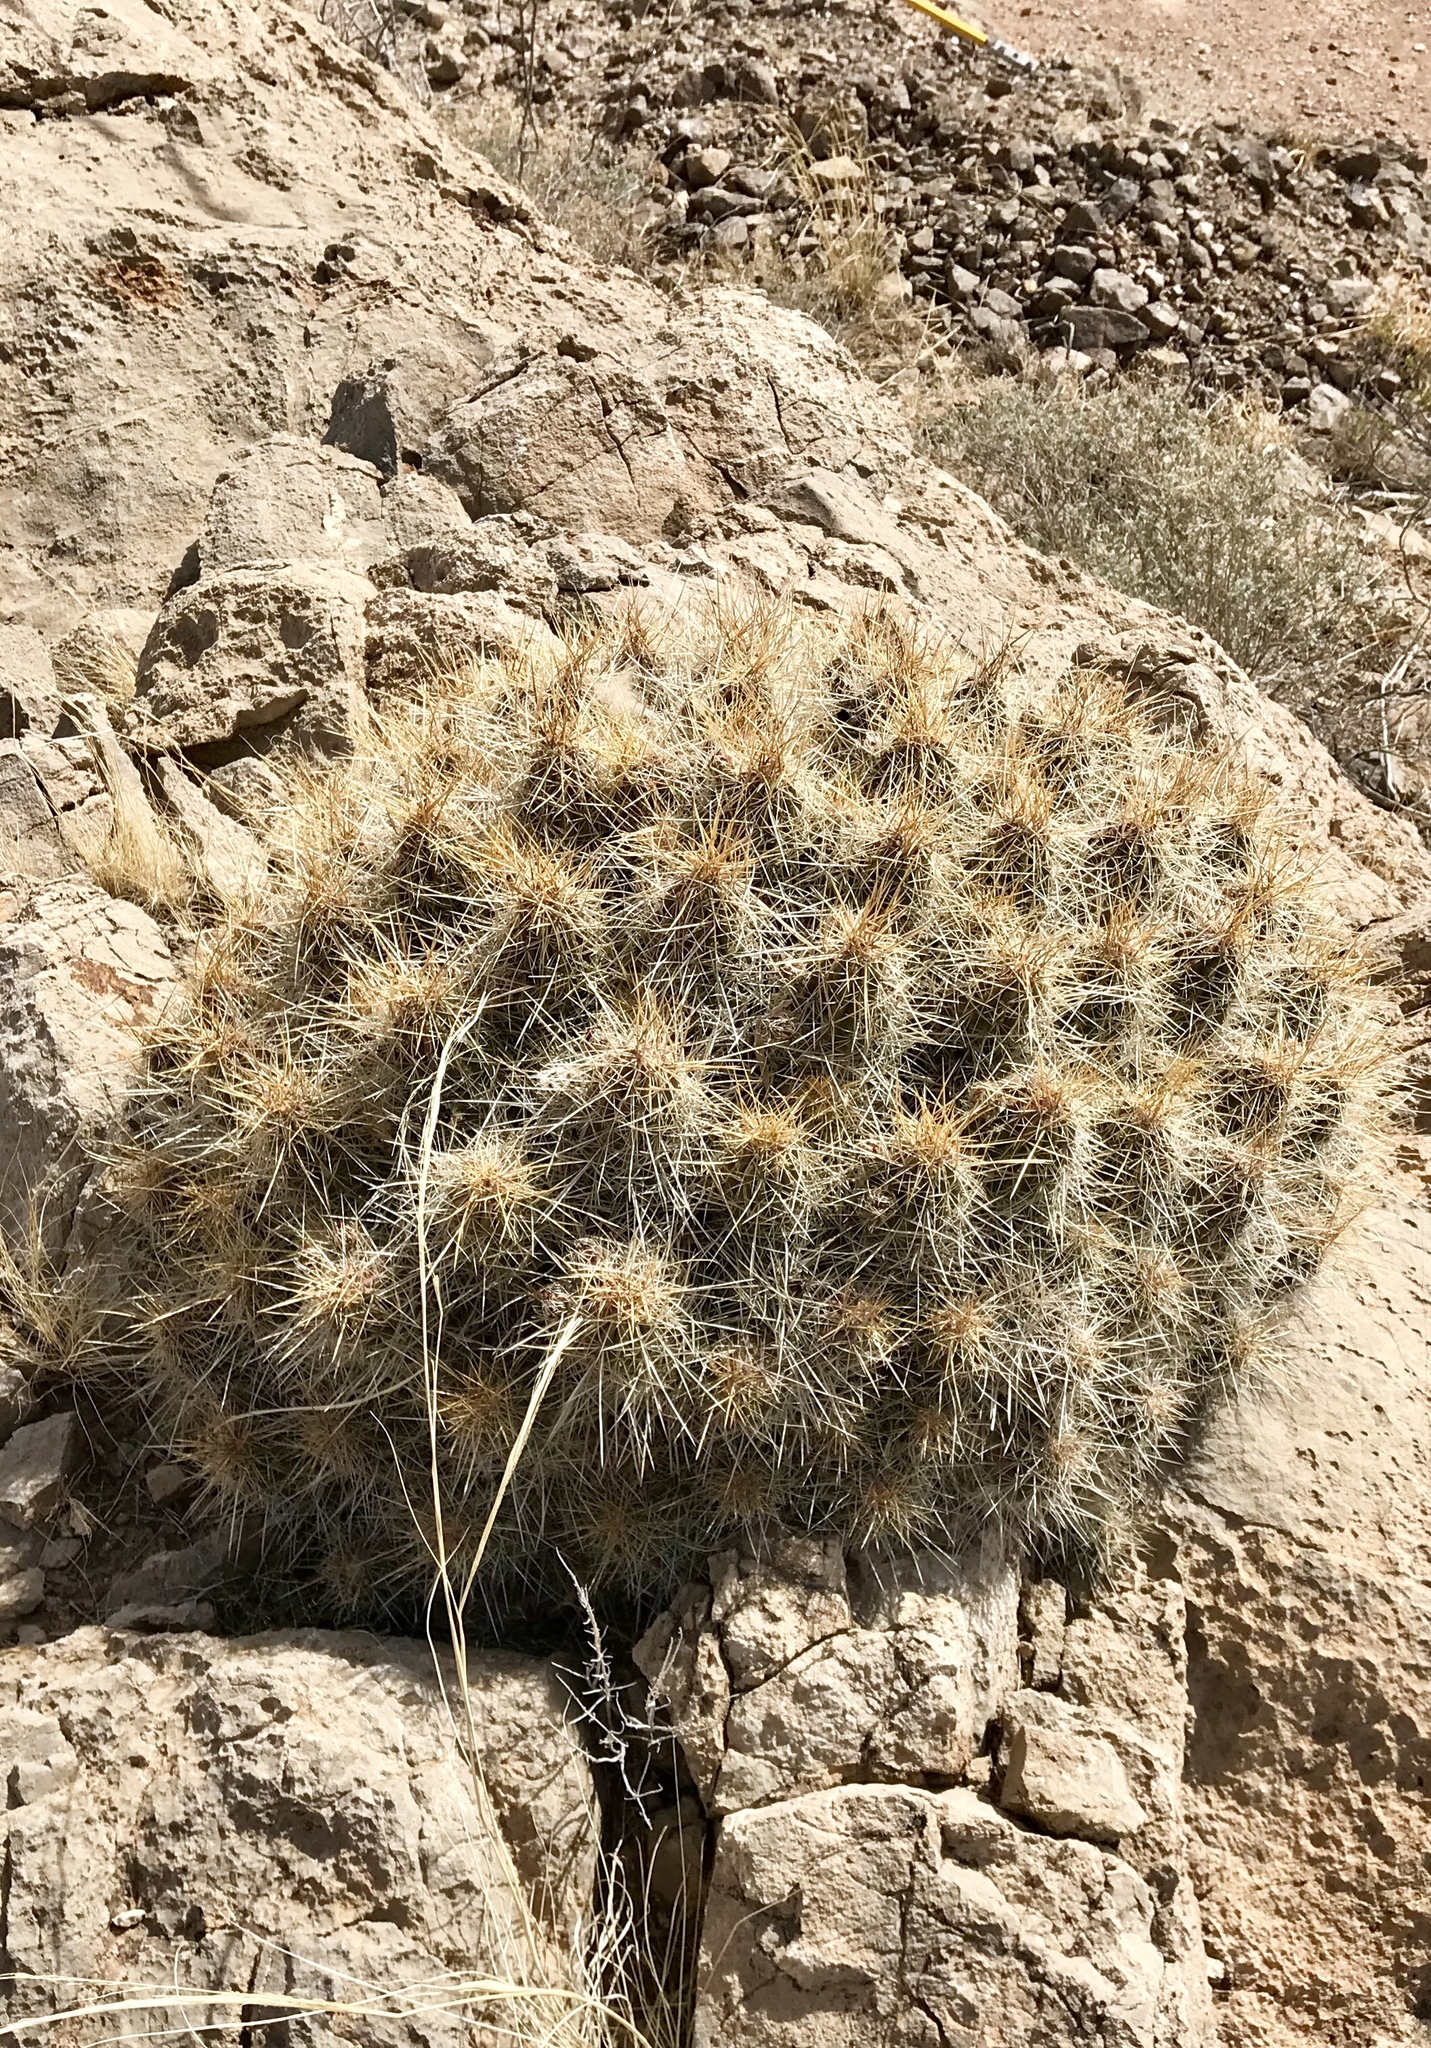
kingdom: Plantae
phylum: Tracheophyta
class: Magnoliopsida
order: Caryophyllales
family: Cactaceae
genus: Echinocereus
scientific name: Echinocereus stramineus
